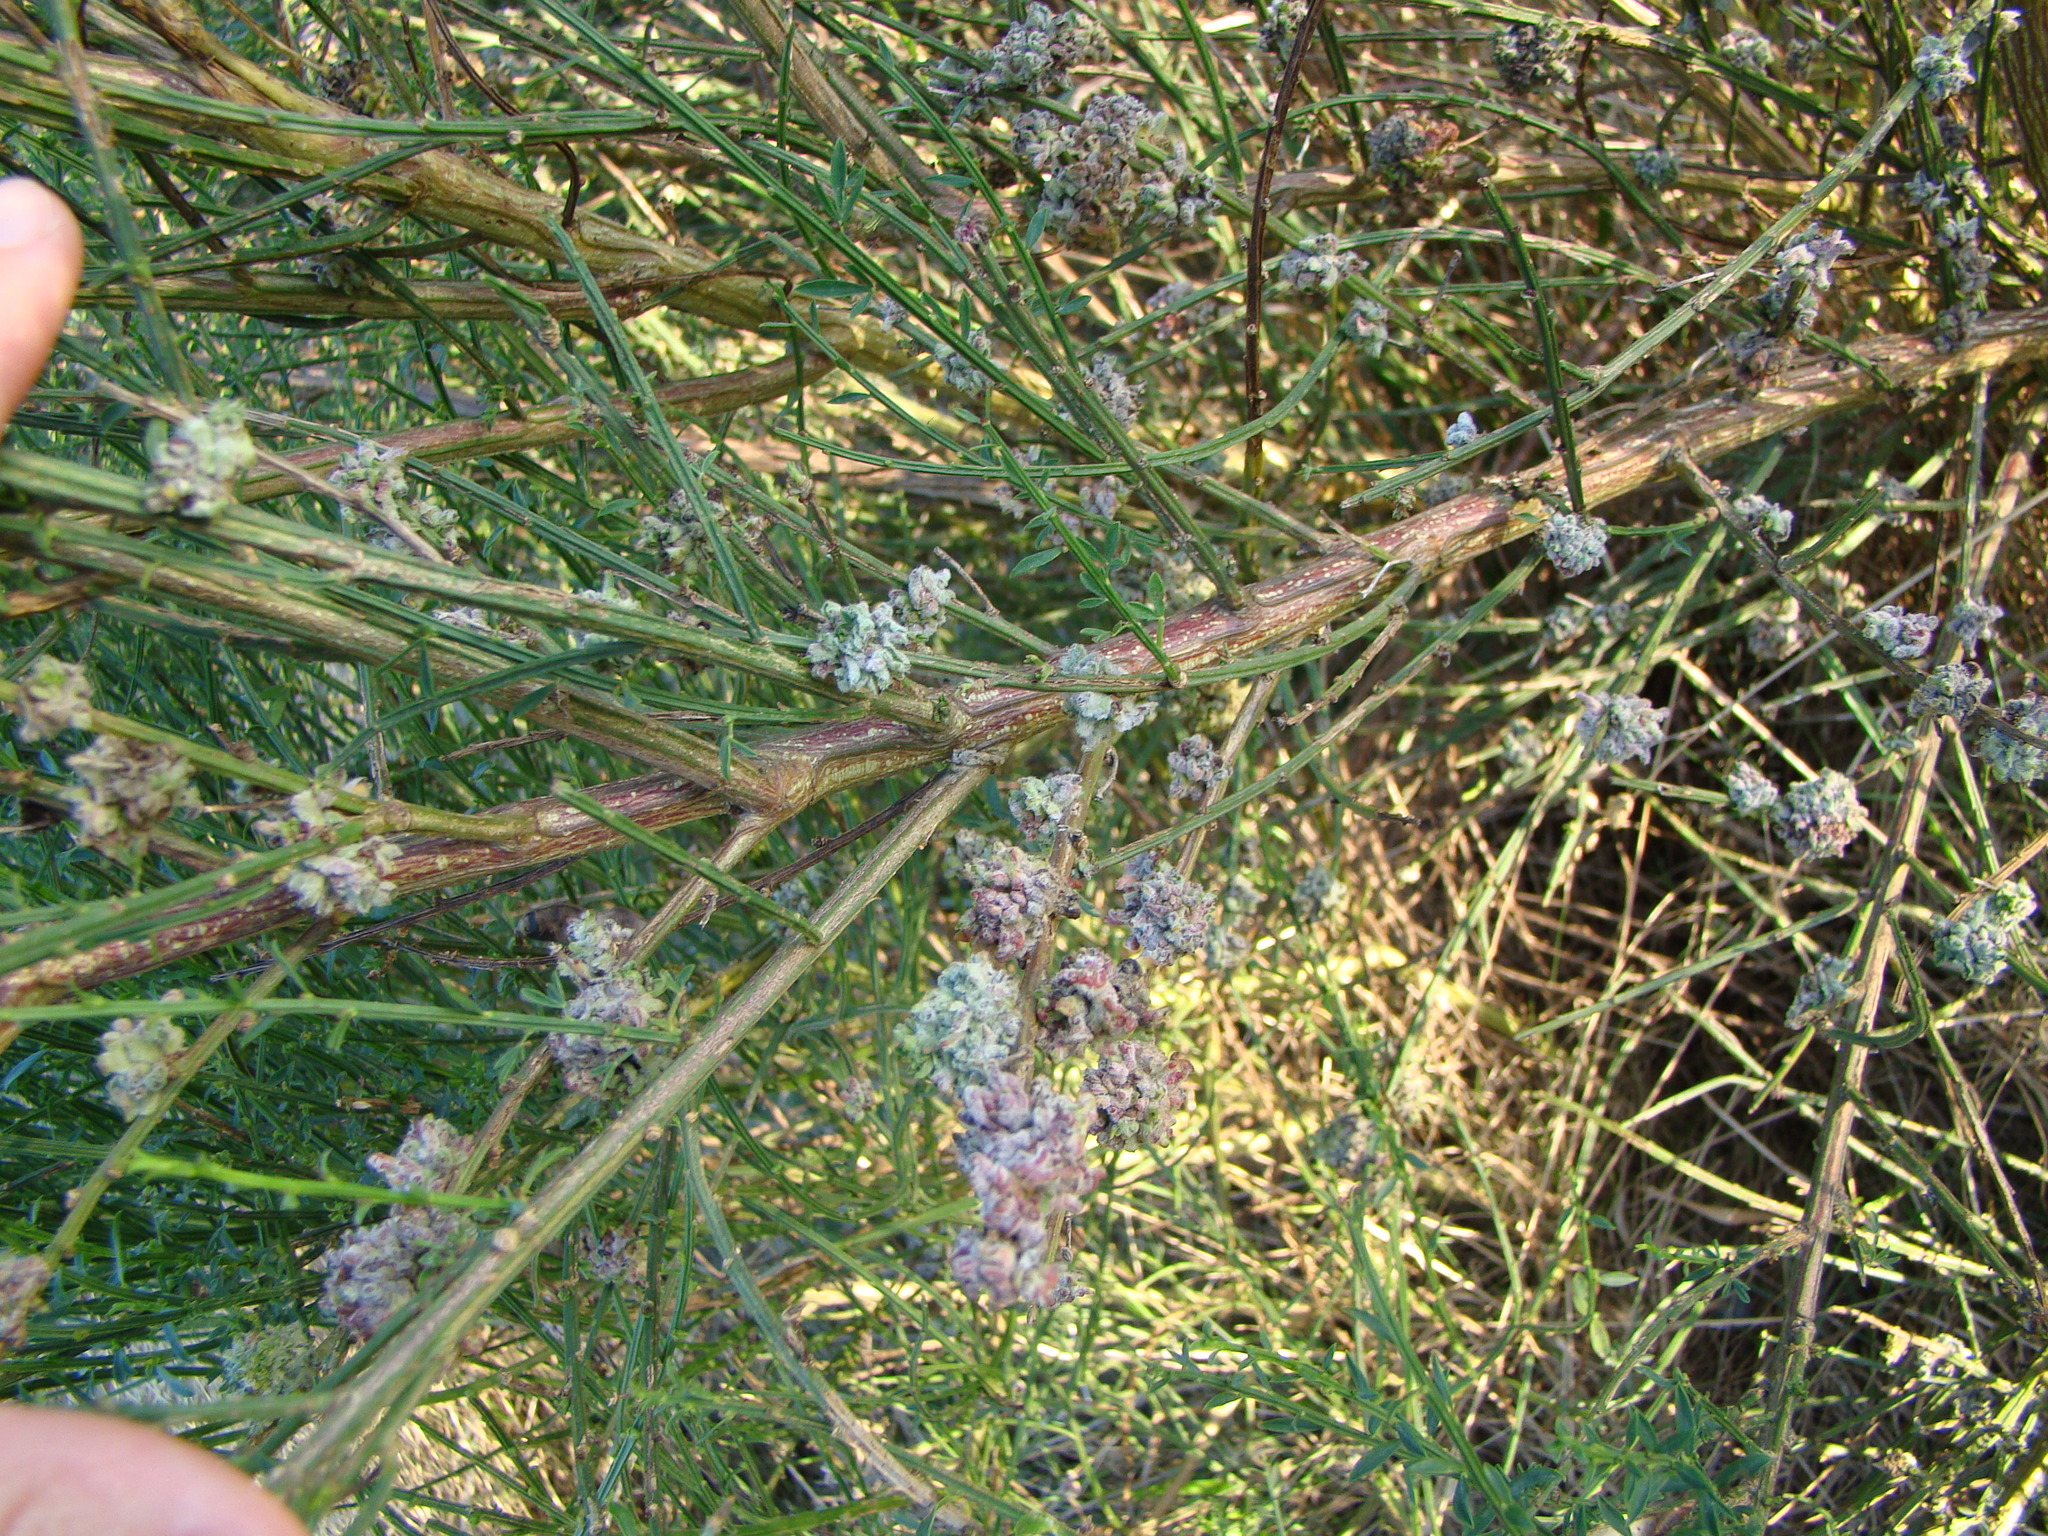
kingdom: Animalia
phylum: Arthropoda
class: Arachnida
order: Trombidiformes
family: Eriophyidae
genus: Aceria
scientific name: Aceria genistae
